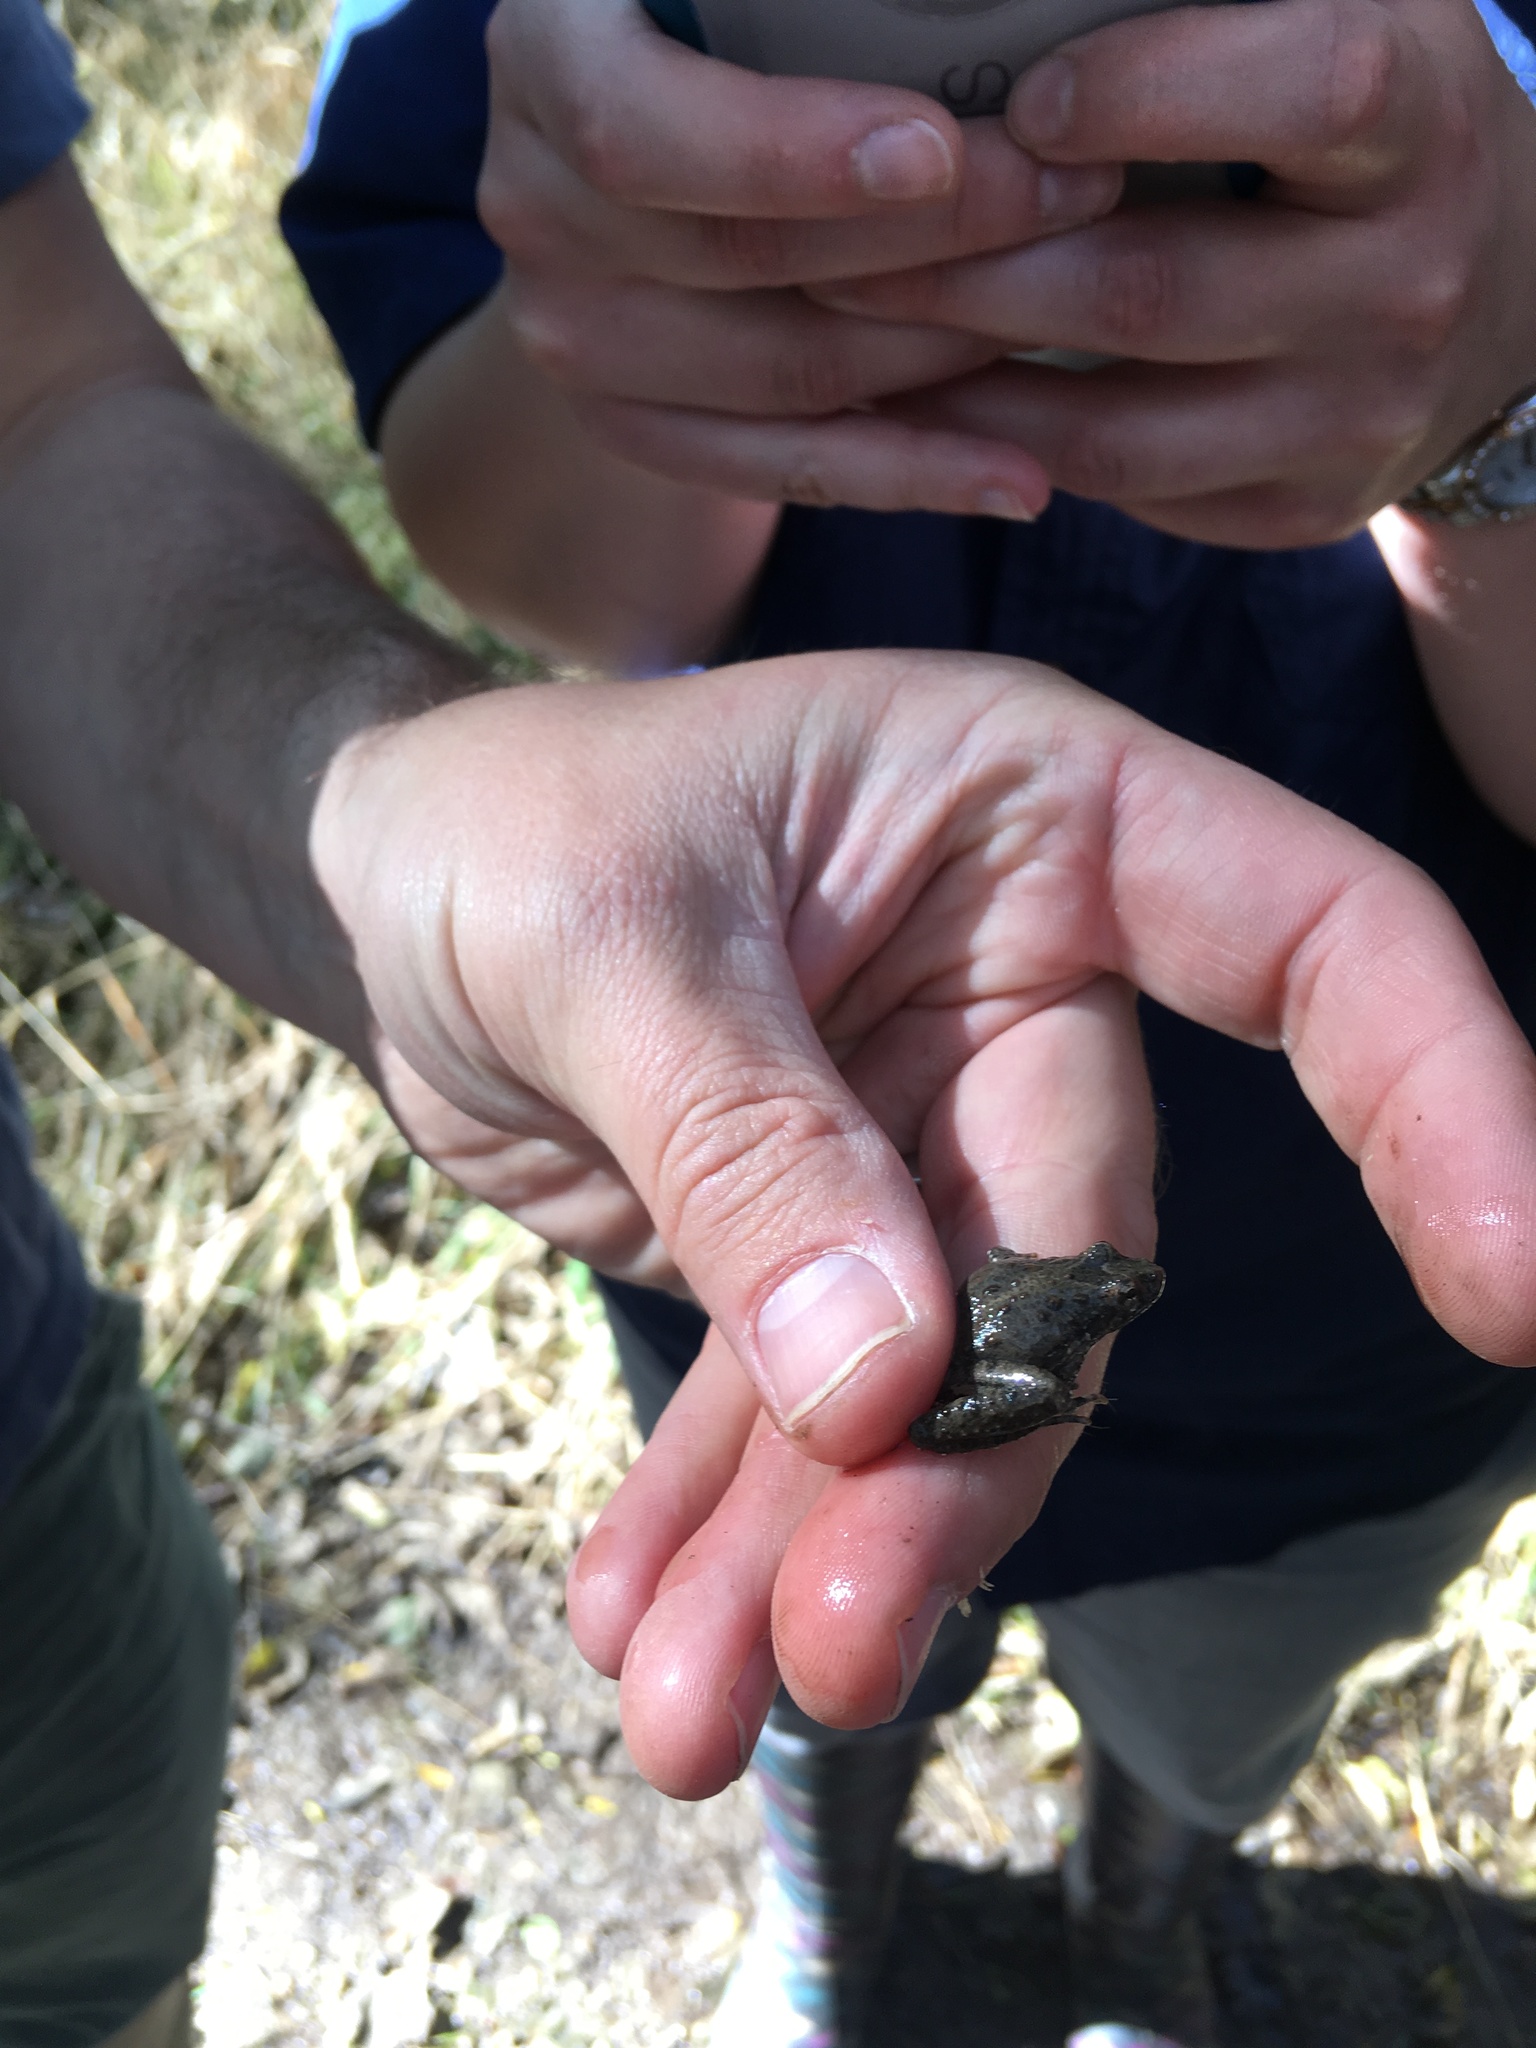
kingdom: Animalia
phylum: Chordata
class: Amphibia
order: Anura
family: Hylidae
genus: Acris
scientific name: Acris blanchardi
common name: Blanchard's cricket frog
